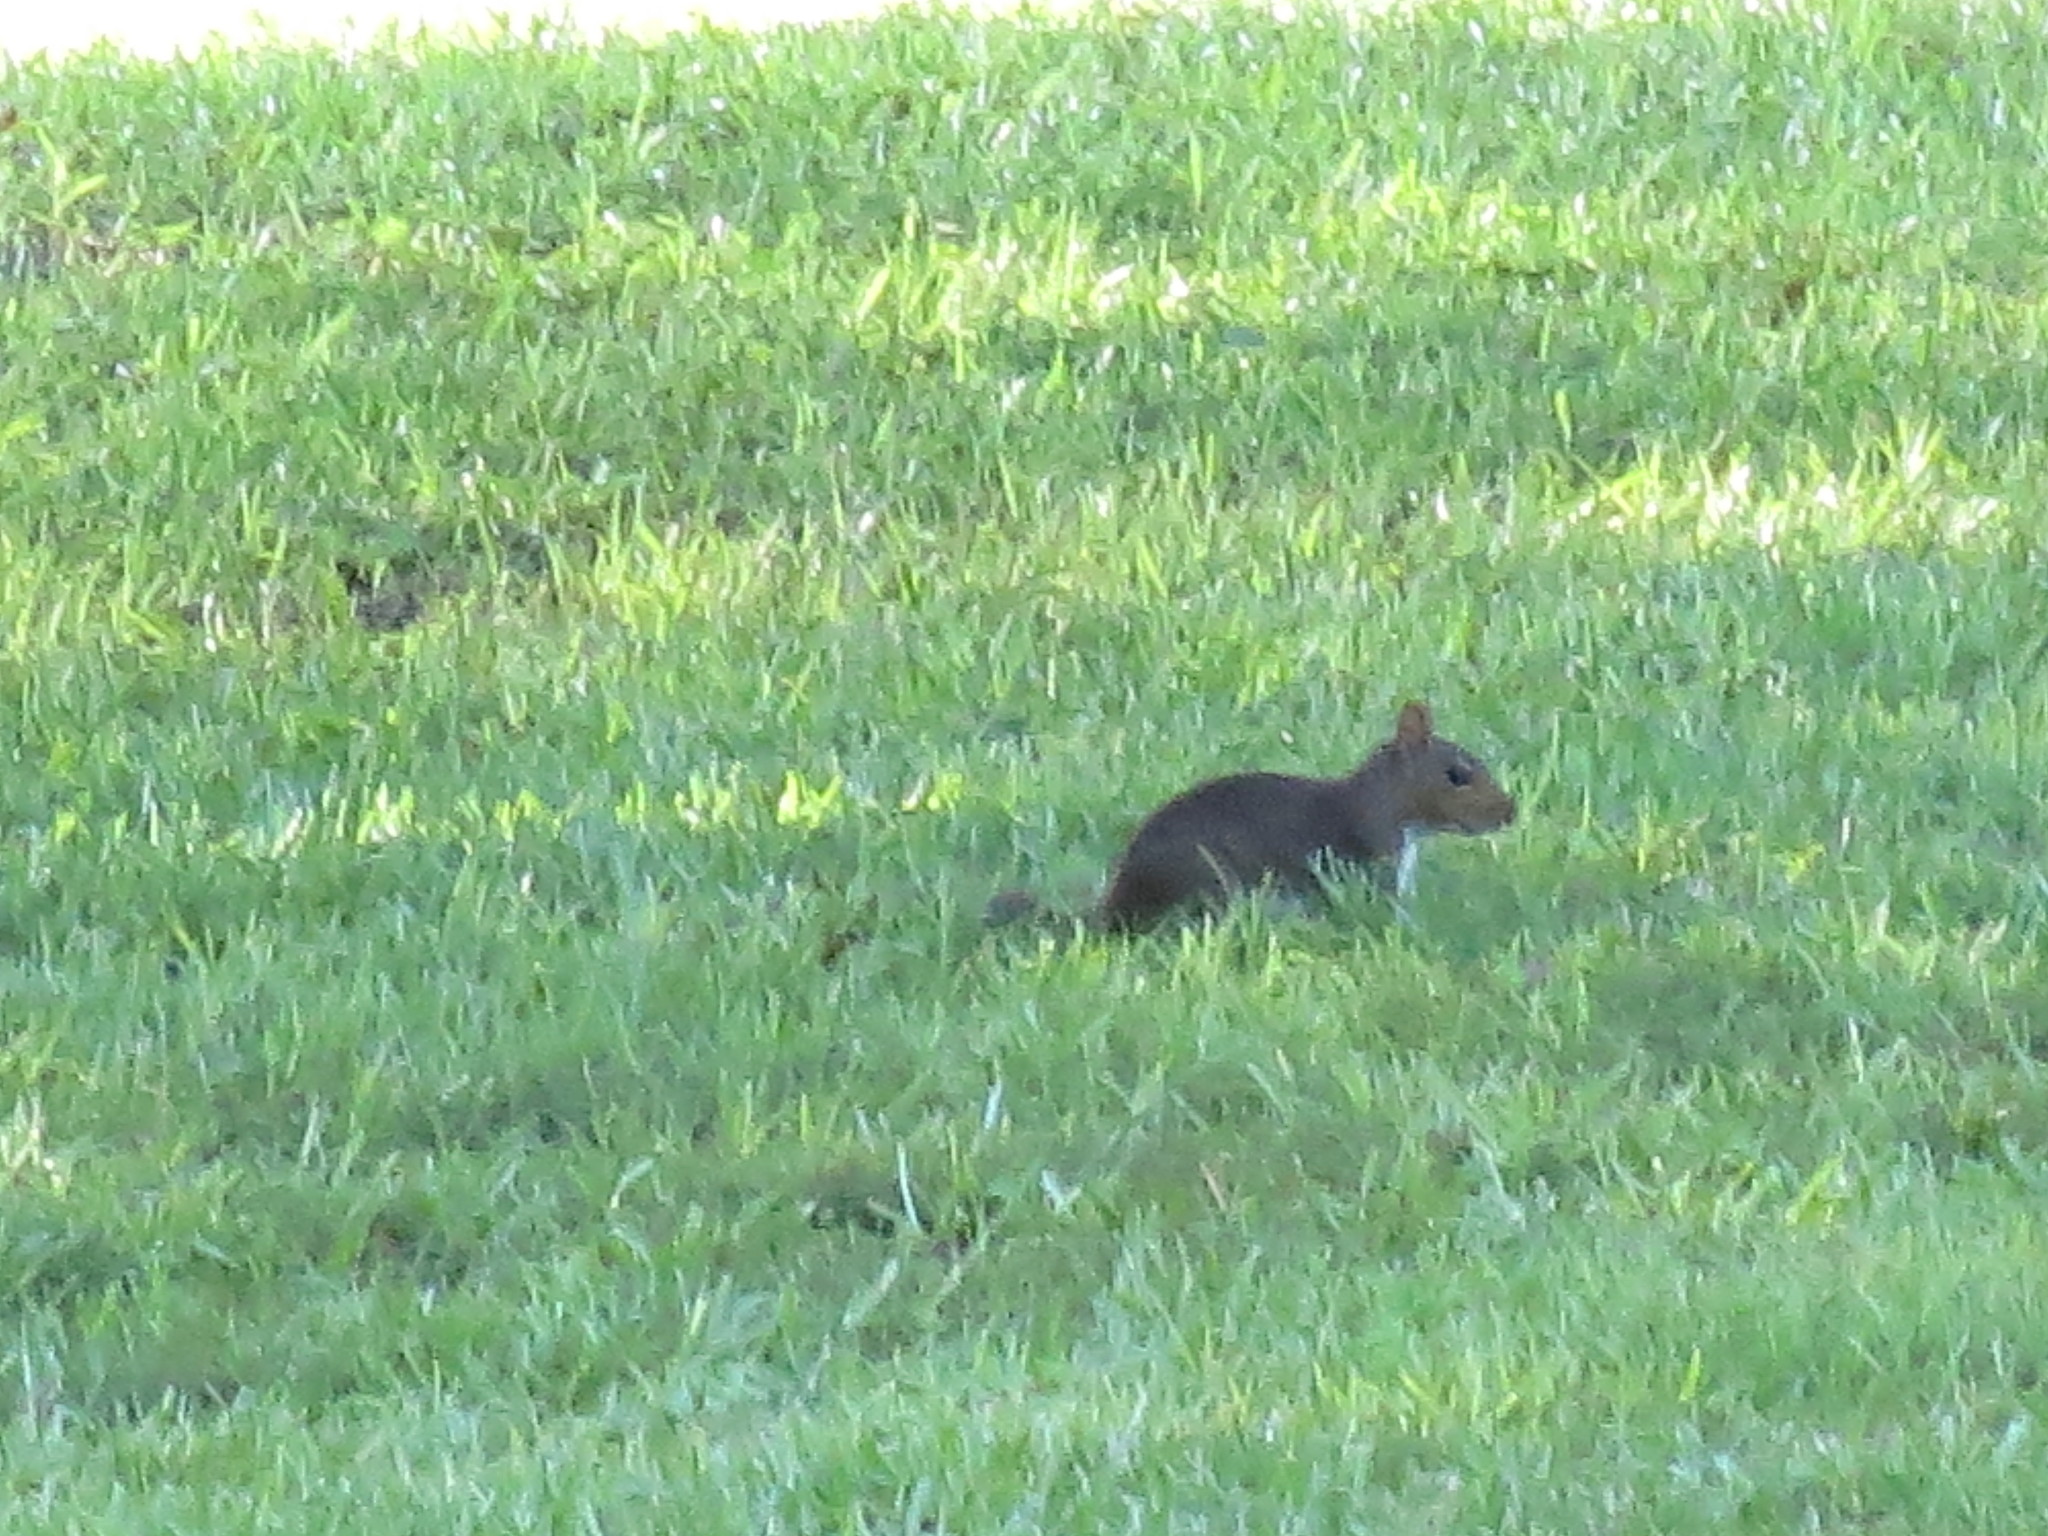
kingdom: Animalia
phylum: Chordata
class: Mammalia
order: Rodentia
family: Sciuridae
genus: Sciurus
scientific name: Sciurus carolinensis
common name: Eastern gray squirrel
